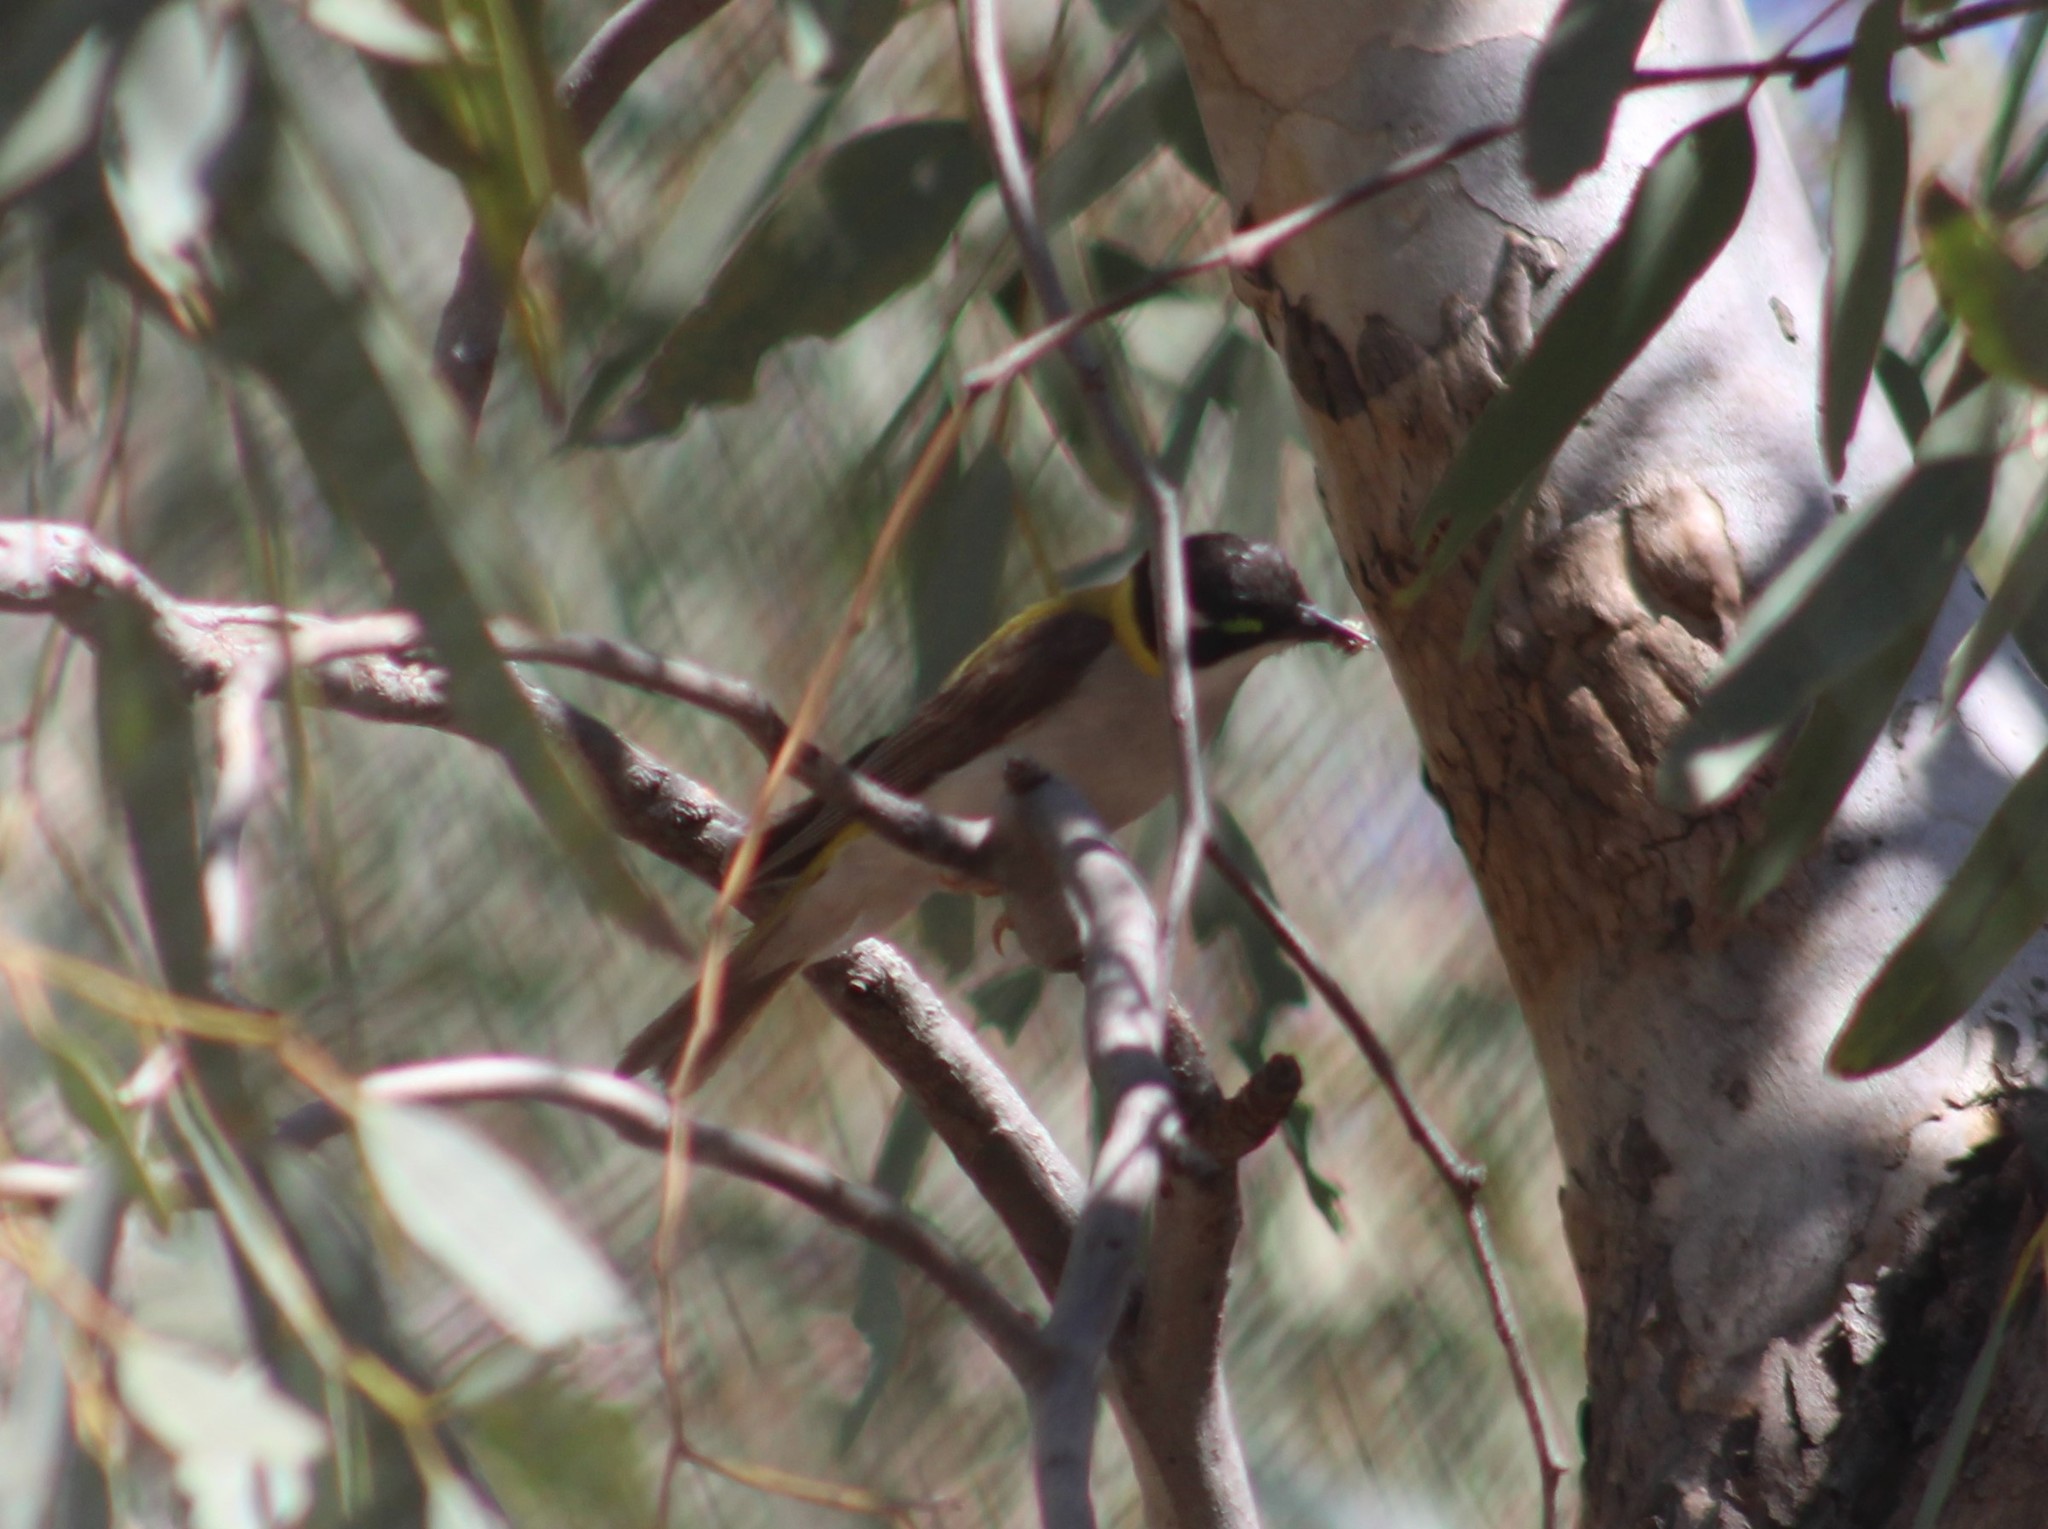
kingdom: Animalia
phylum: Chordata
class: Aves
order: Passeriformes
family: Meliphagidae
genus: Melithreptus
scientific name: Melithreptus gularis
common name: Black-chinned honeyeater
